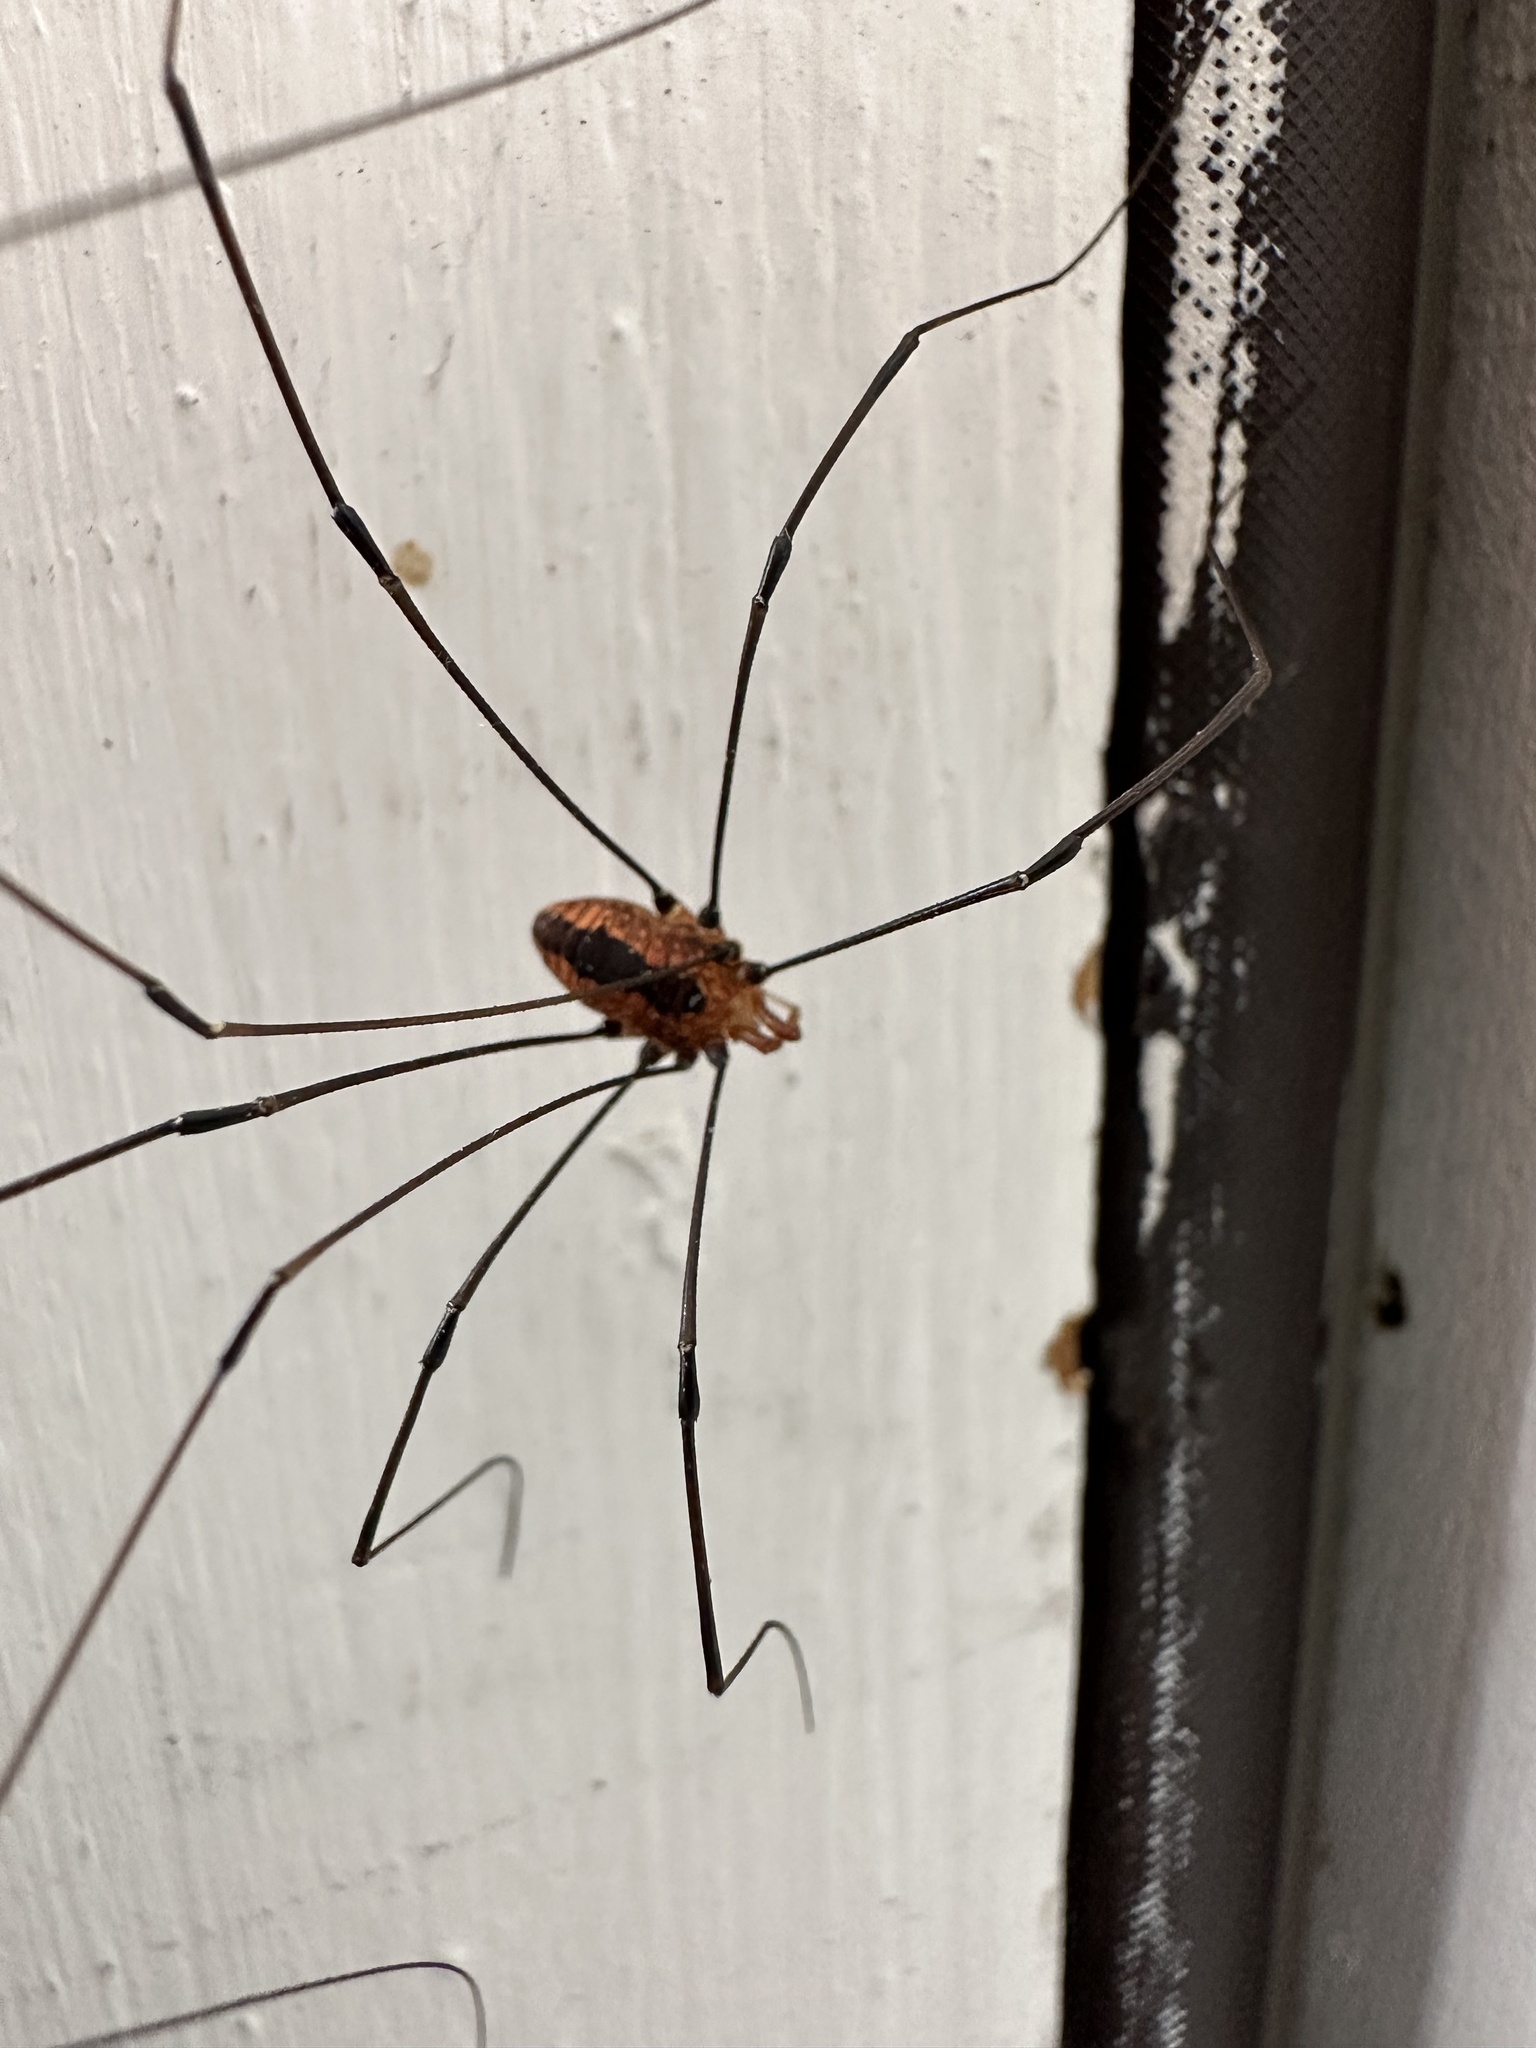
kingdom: Animalia
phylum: Arthropoda
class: Arachnida
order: Opiliones
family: Sclerosomatidae
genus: Leiobunum
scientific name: Leiobunum vittatum
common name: Eastern harvestman
